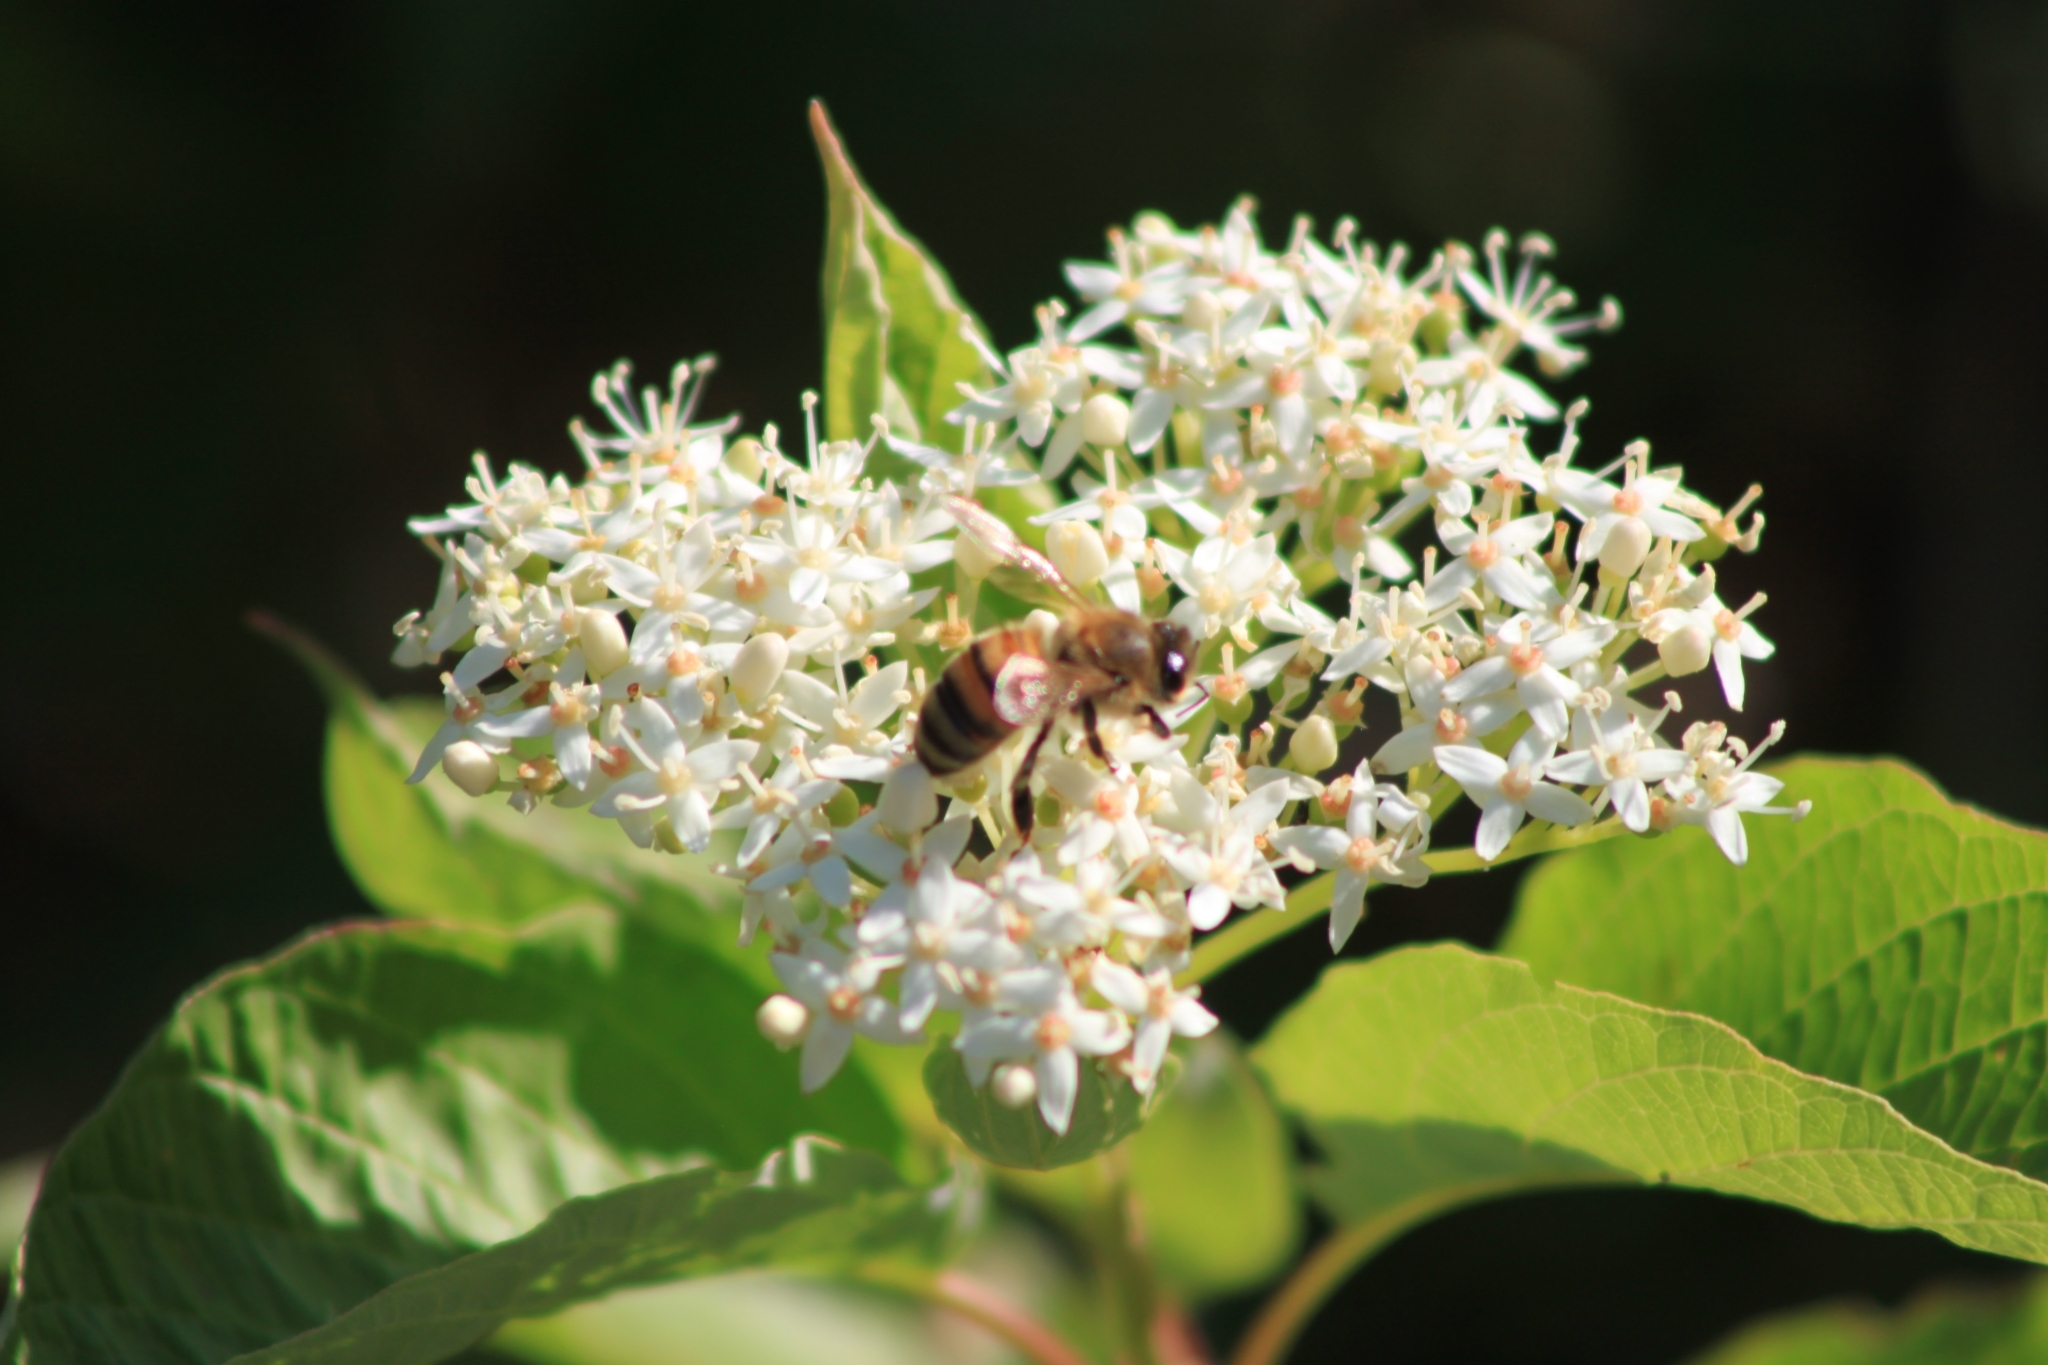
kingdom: Animalia
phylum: Arthropoda
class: Insecta
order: Hymenoptera
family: Apidae
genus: Apis
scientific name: Apis mellifera
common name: Honey bee
